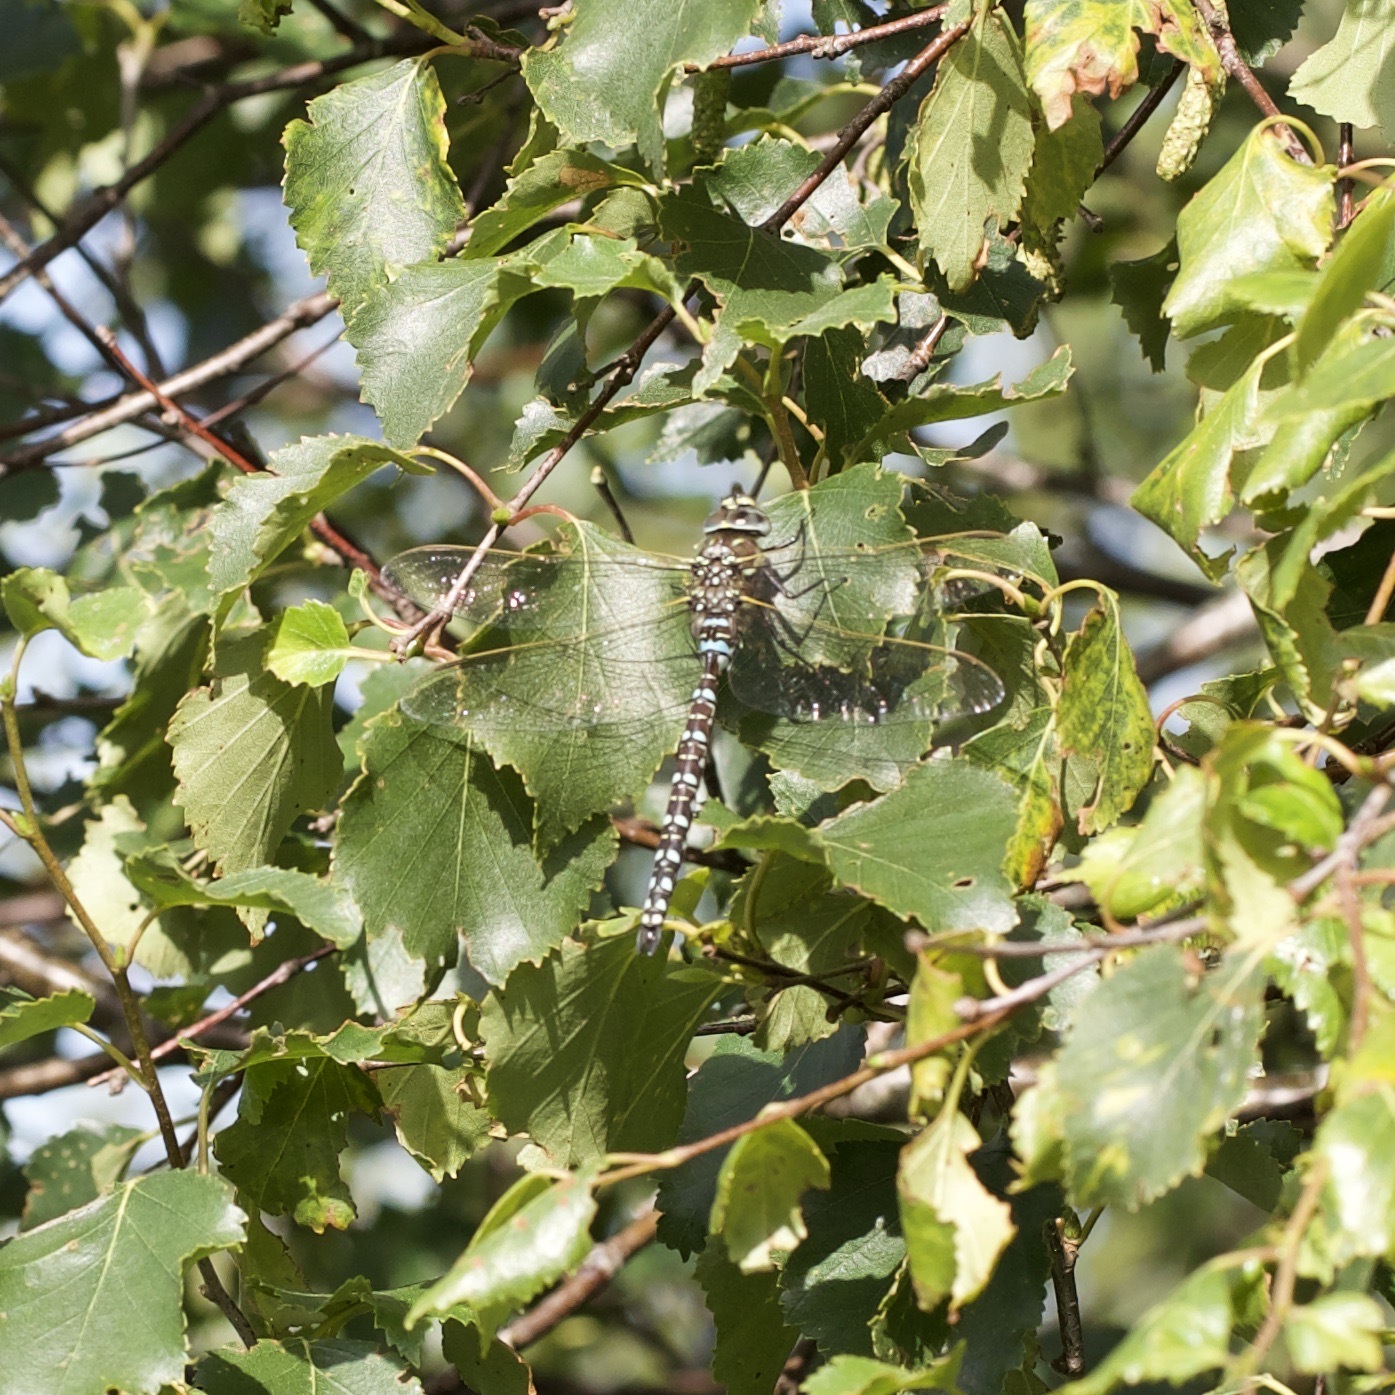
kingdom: Animalia
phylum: Arthropoda
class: Insecta
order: Odonata
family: Aeshnidae
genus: Aeshna
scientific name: Aeshna juncea
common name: Moorland hawker
